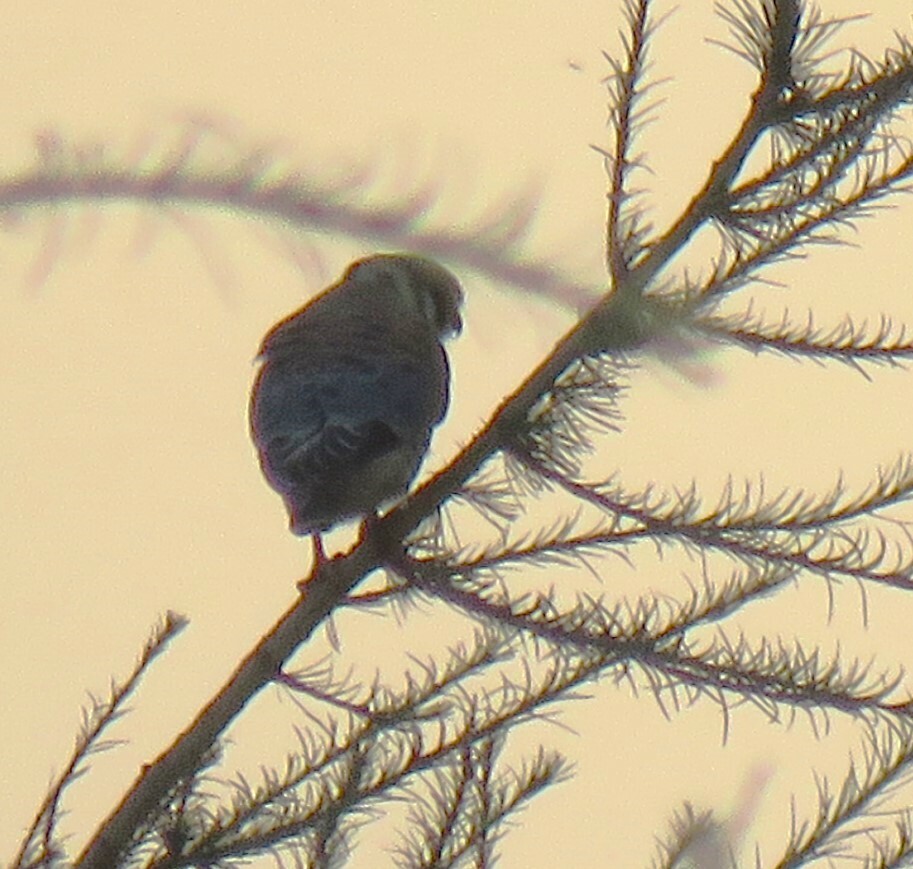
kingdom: Animalia
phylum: Chordata
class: Aves
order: Falconiformes
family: Falconidae
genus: Falco
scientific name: Falco sparverius
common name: American kestrel
